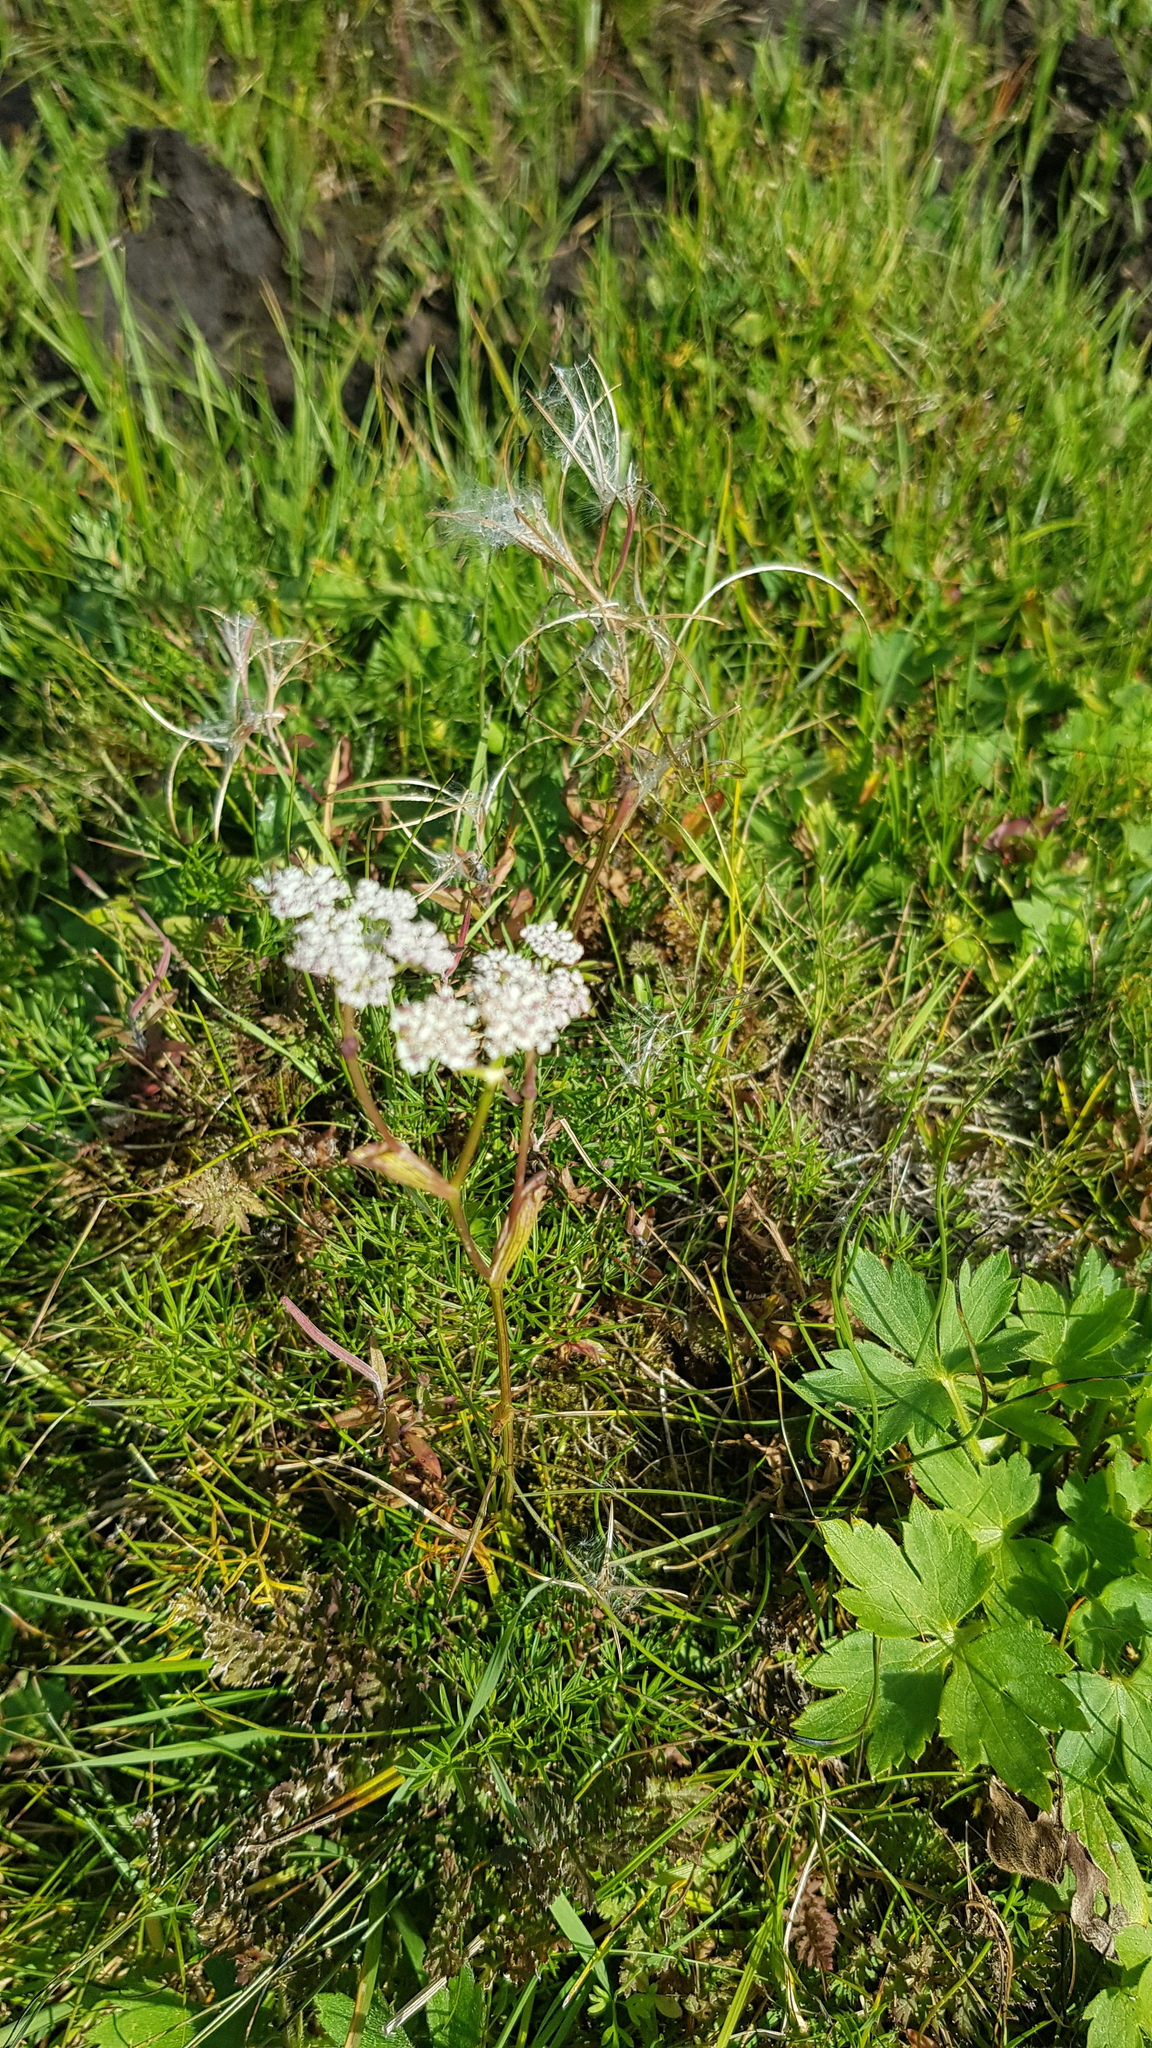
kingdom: Plantae
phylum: Tracheophyta
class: Magnoliopsida
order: Apiales
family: Apiaceae
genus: Ostericum
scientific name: Ostericum tenuifolium
